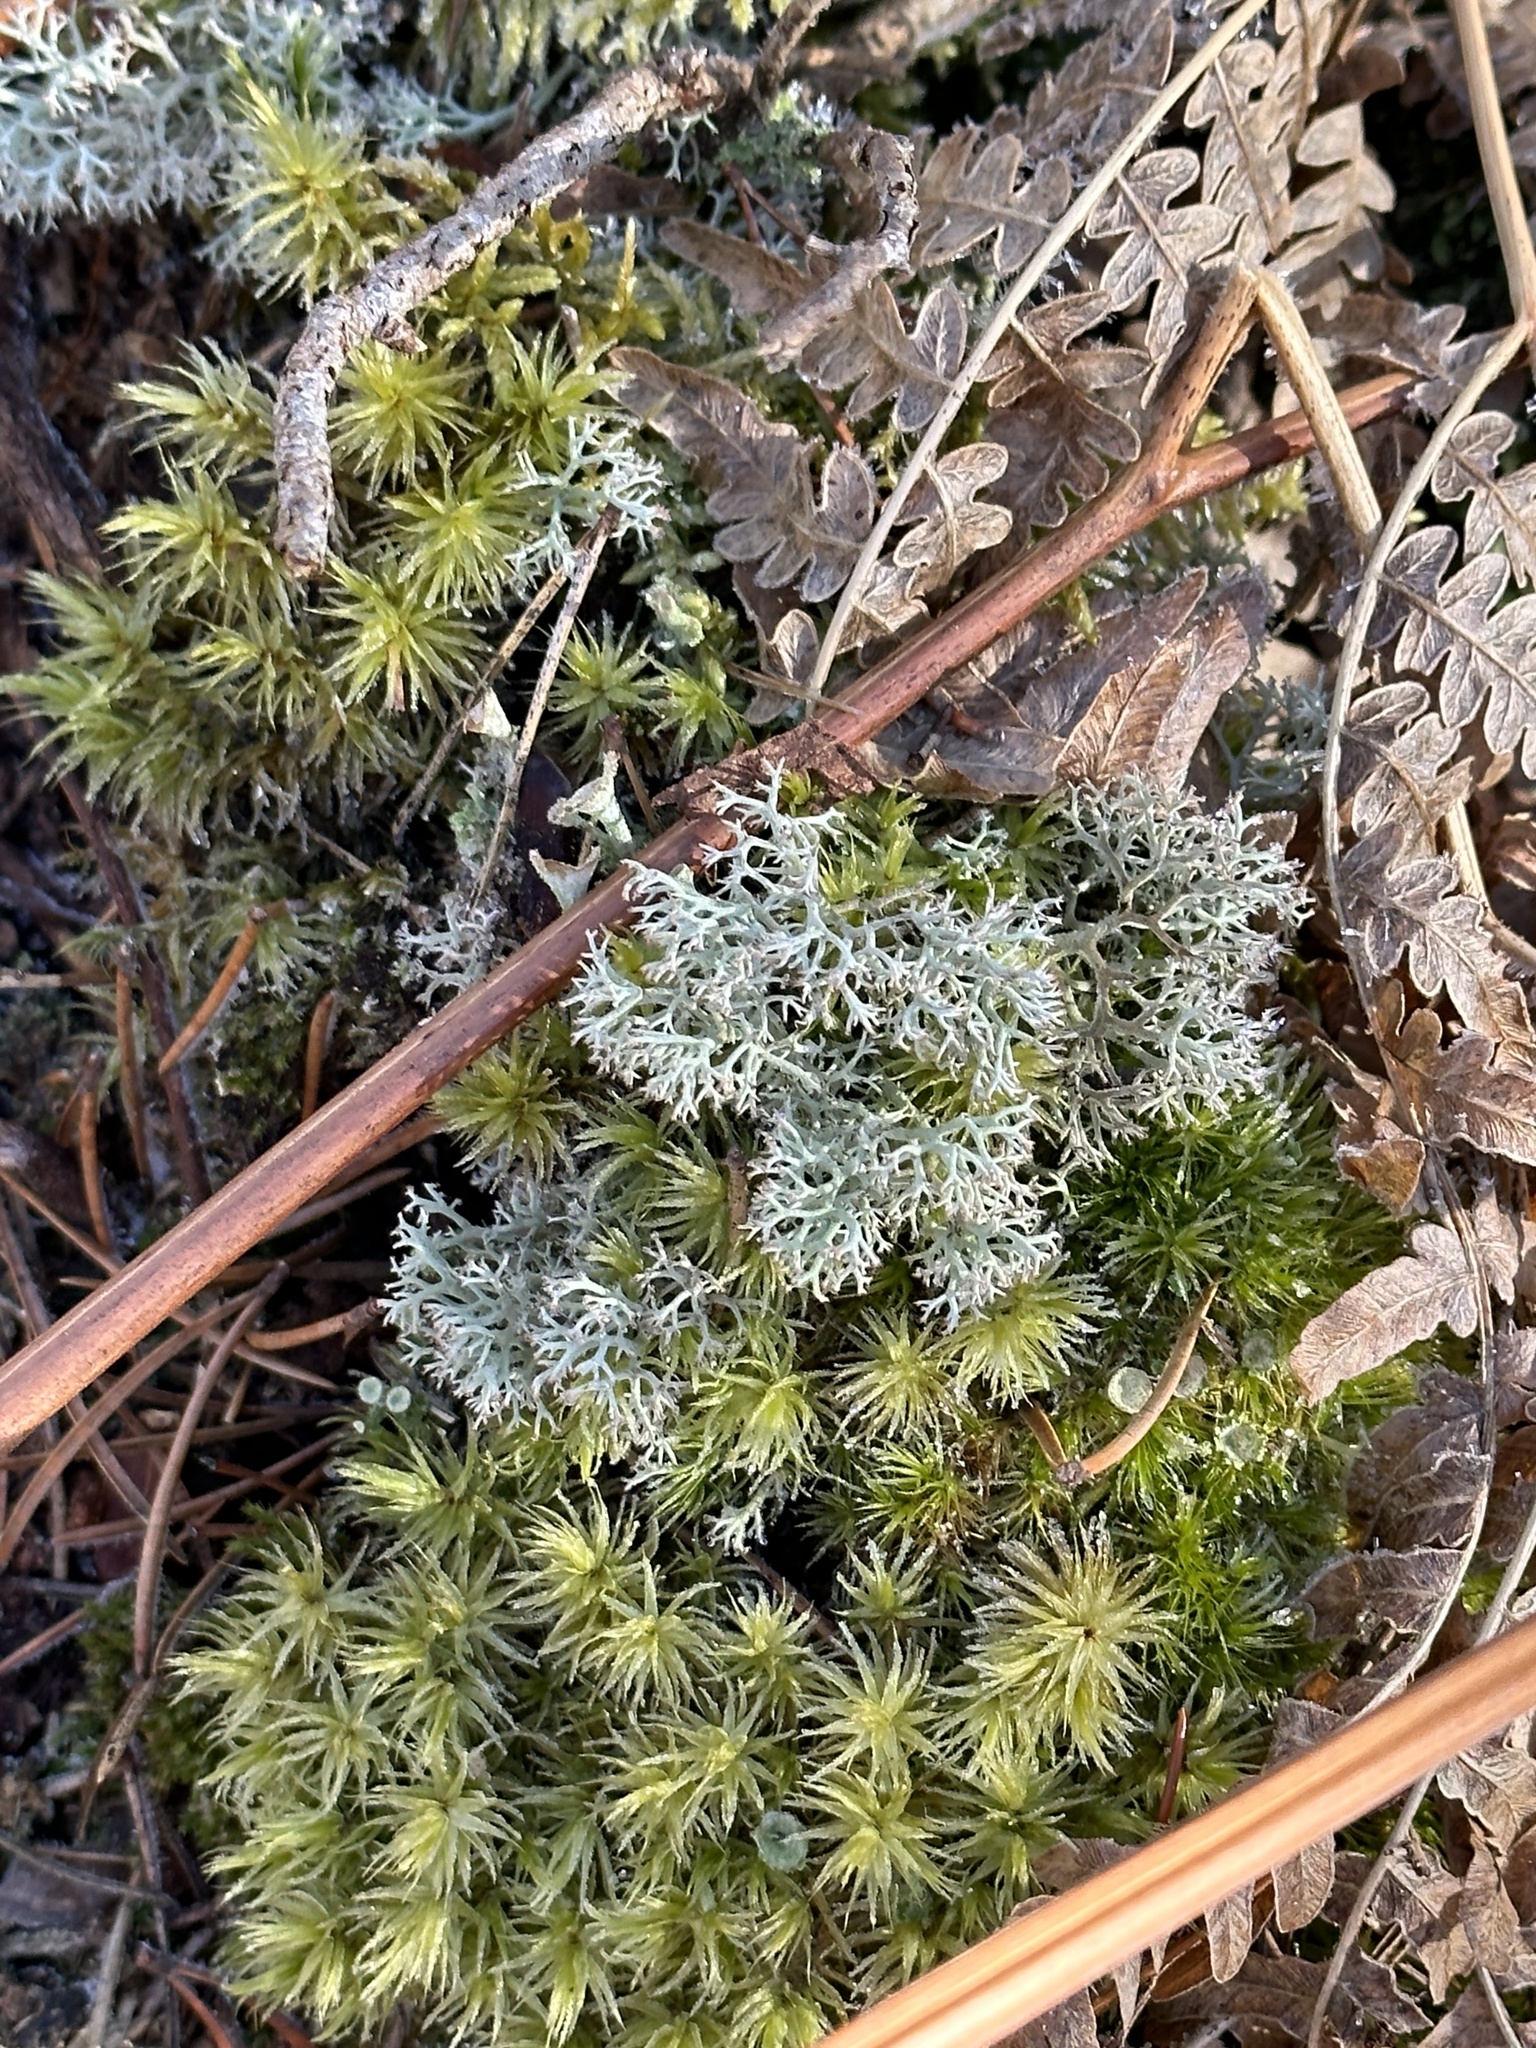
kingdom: Fungi
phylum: Ascomycota
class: Lecanoromycetes
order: Lecanorales
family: Cladoniaceae
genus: Cladonia
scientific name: Cladonia rangiferina
